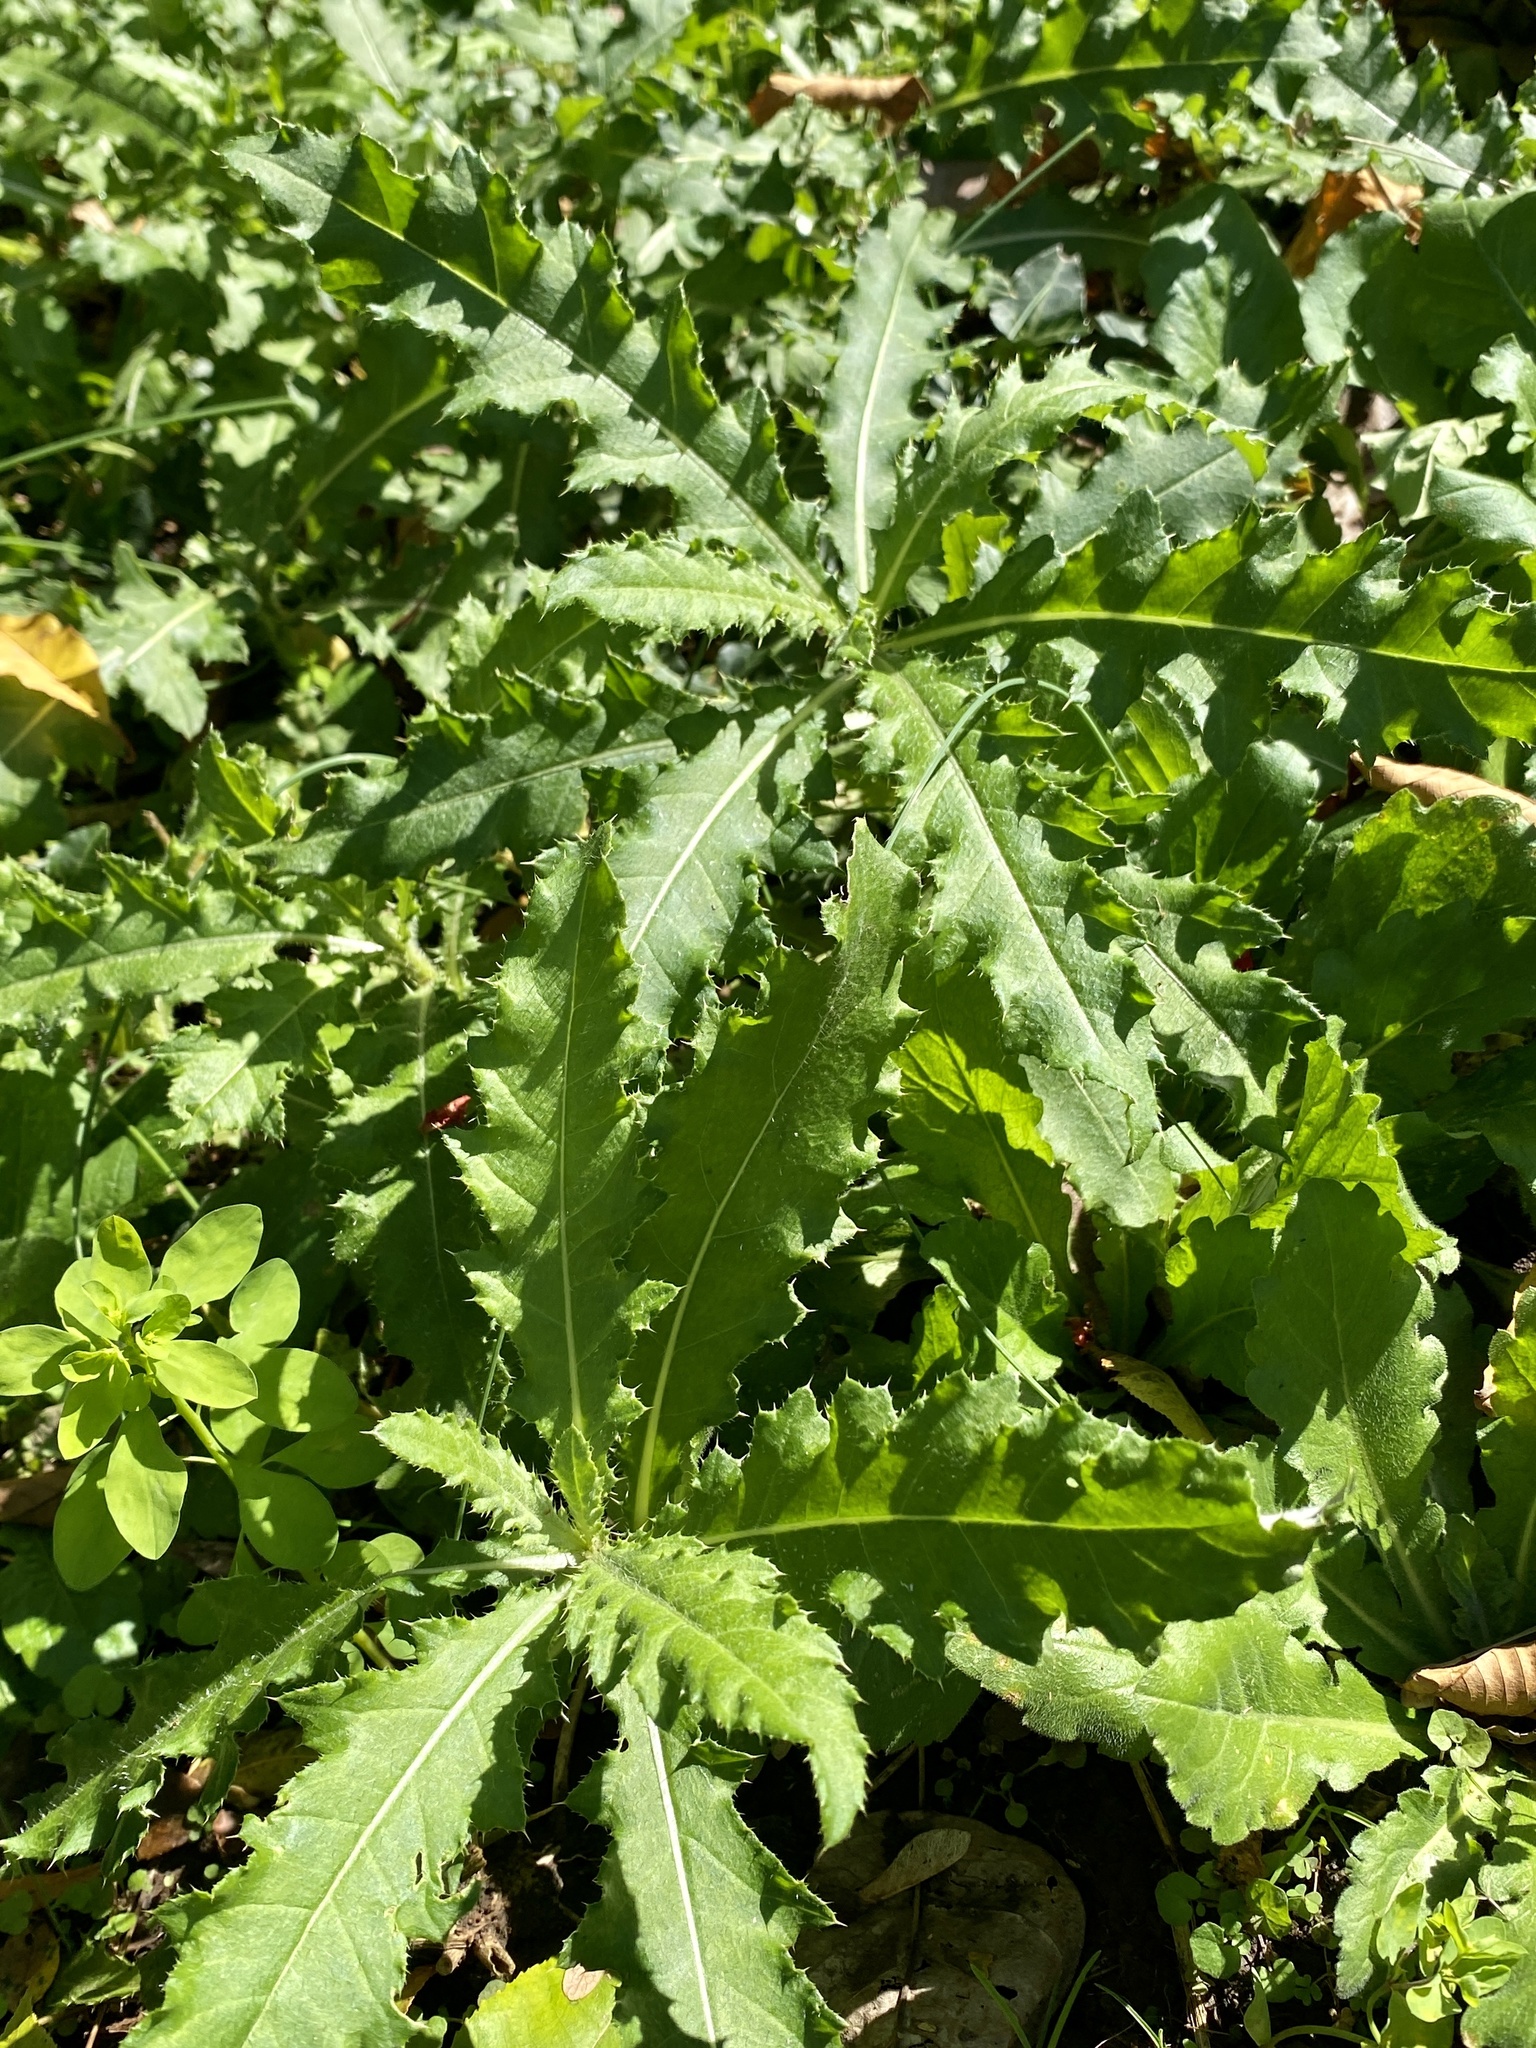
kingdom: Plantae
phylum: Tracheophyta
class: Magnoliopsida
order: Asterales
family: Asteraceae
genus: Cirsium
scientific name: Cirsium arvense
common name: Creeping thistle
